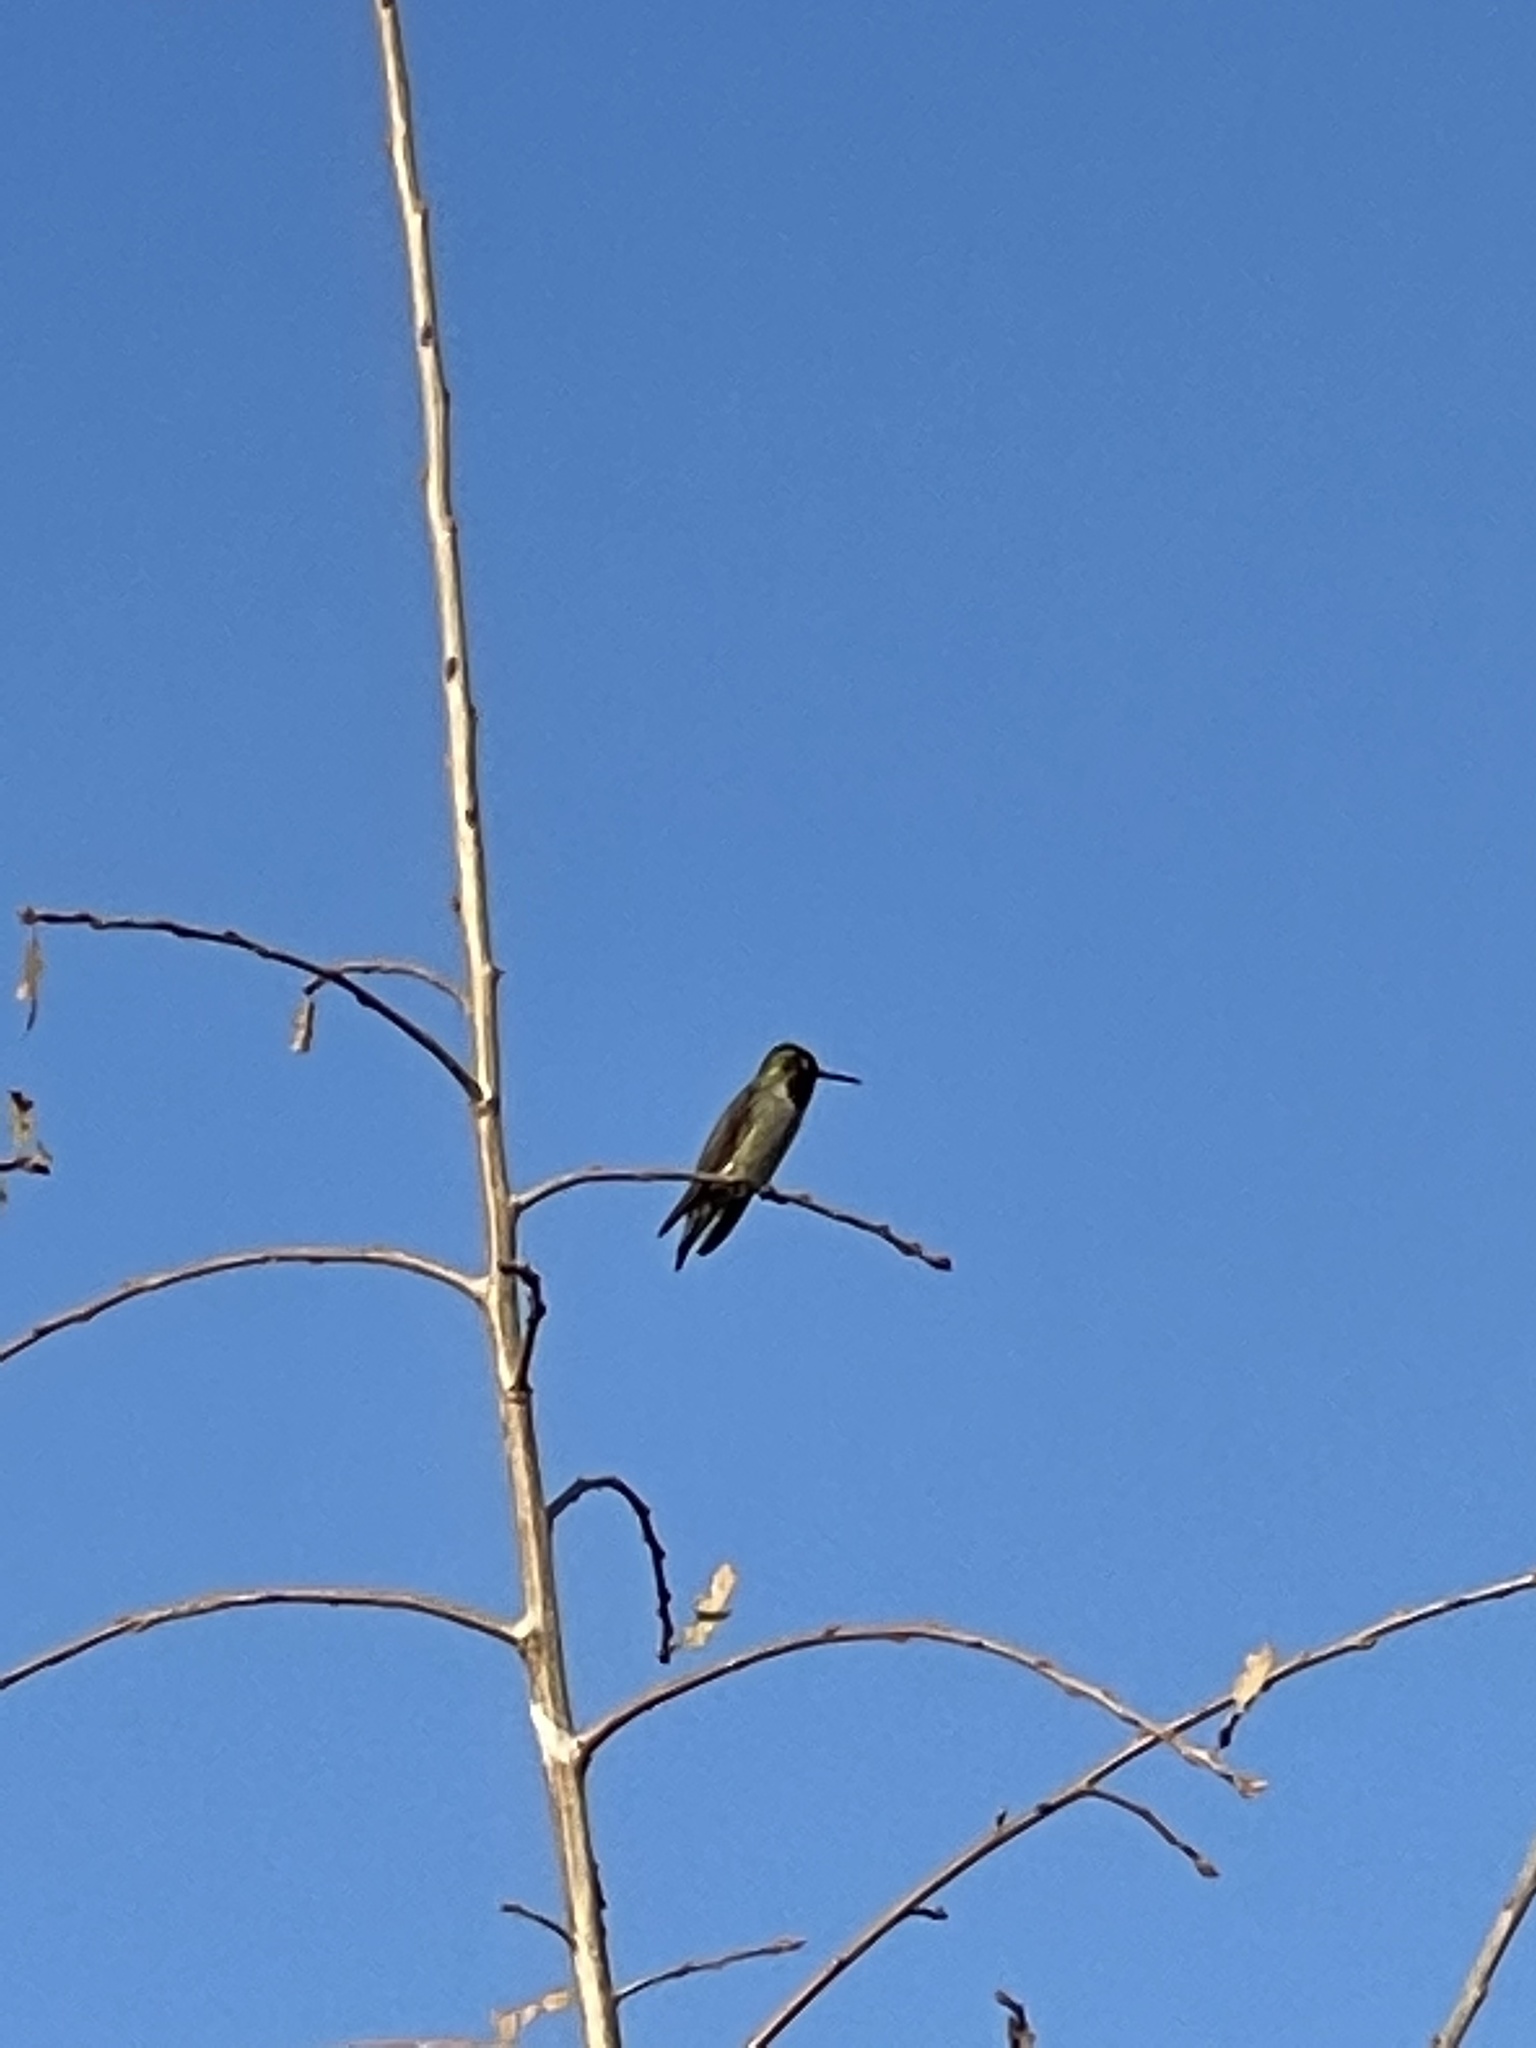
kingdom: Animalia
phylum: Chordata
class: Aves
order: Apodiformes
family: Trochilidae
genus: Calypte
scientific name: Calypte anna
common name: Anna's hummingbird
